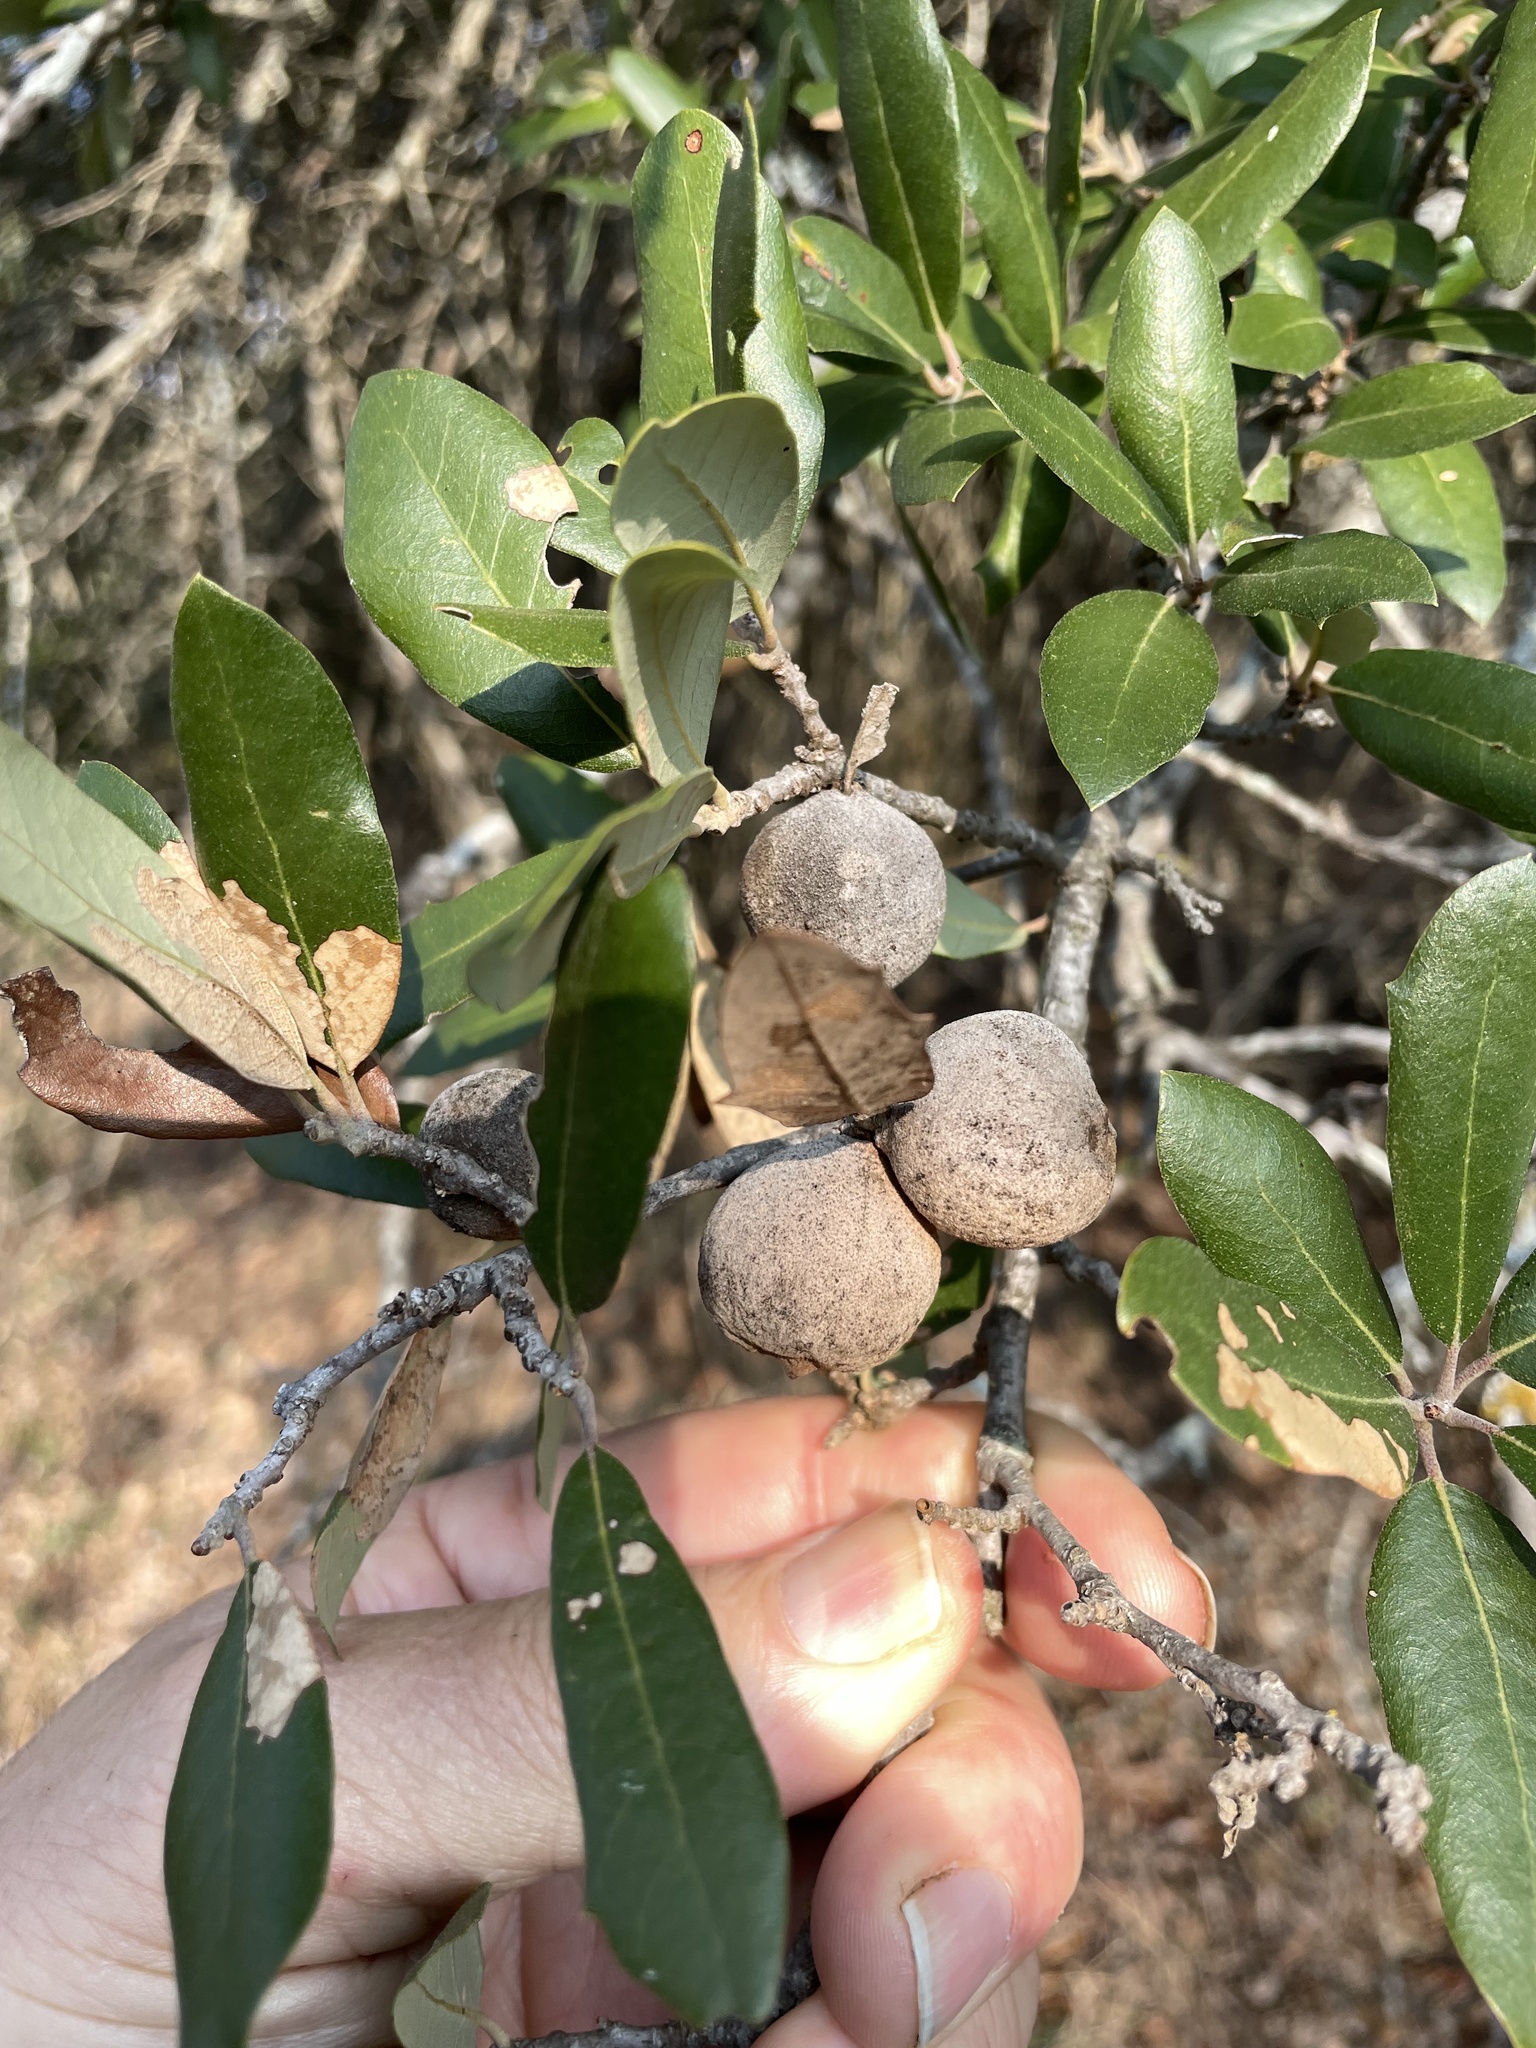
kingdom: Animalia
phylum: Arthropoda
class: Insecta
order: Hymenoptera
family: Cynipidae
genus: Disholcaspis
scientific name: Disholcaspis
